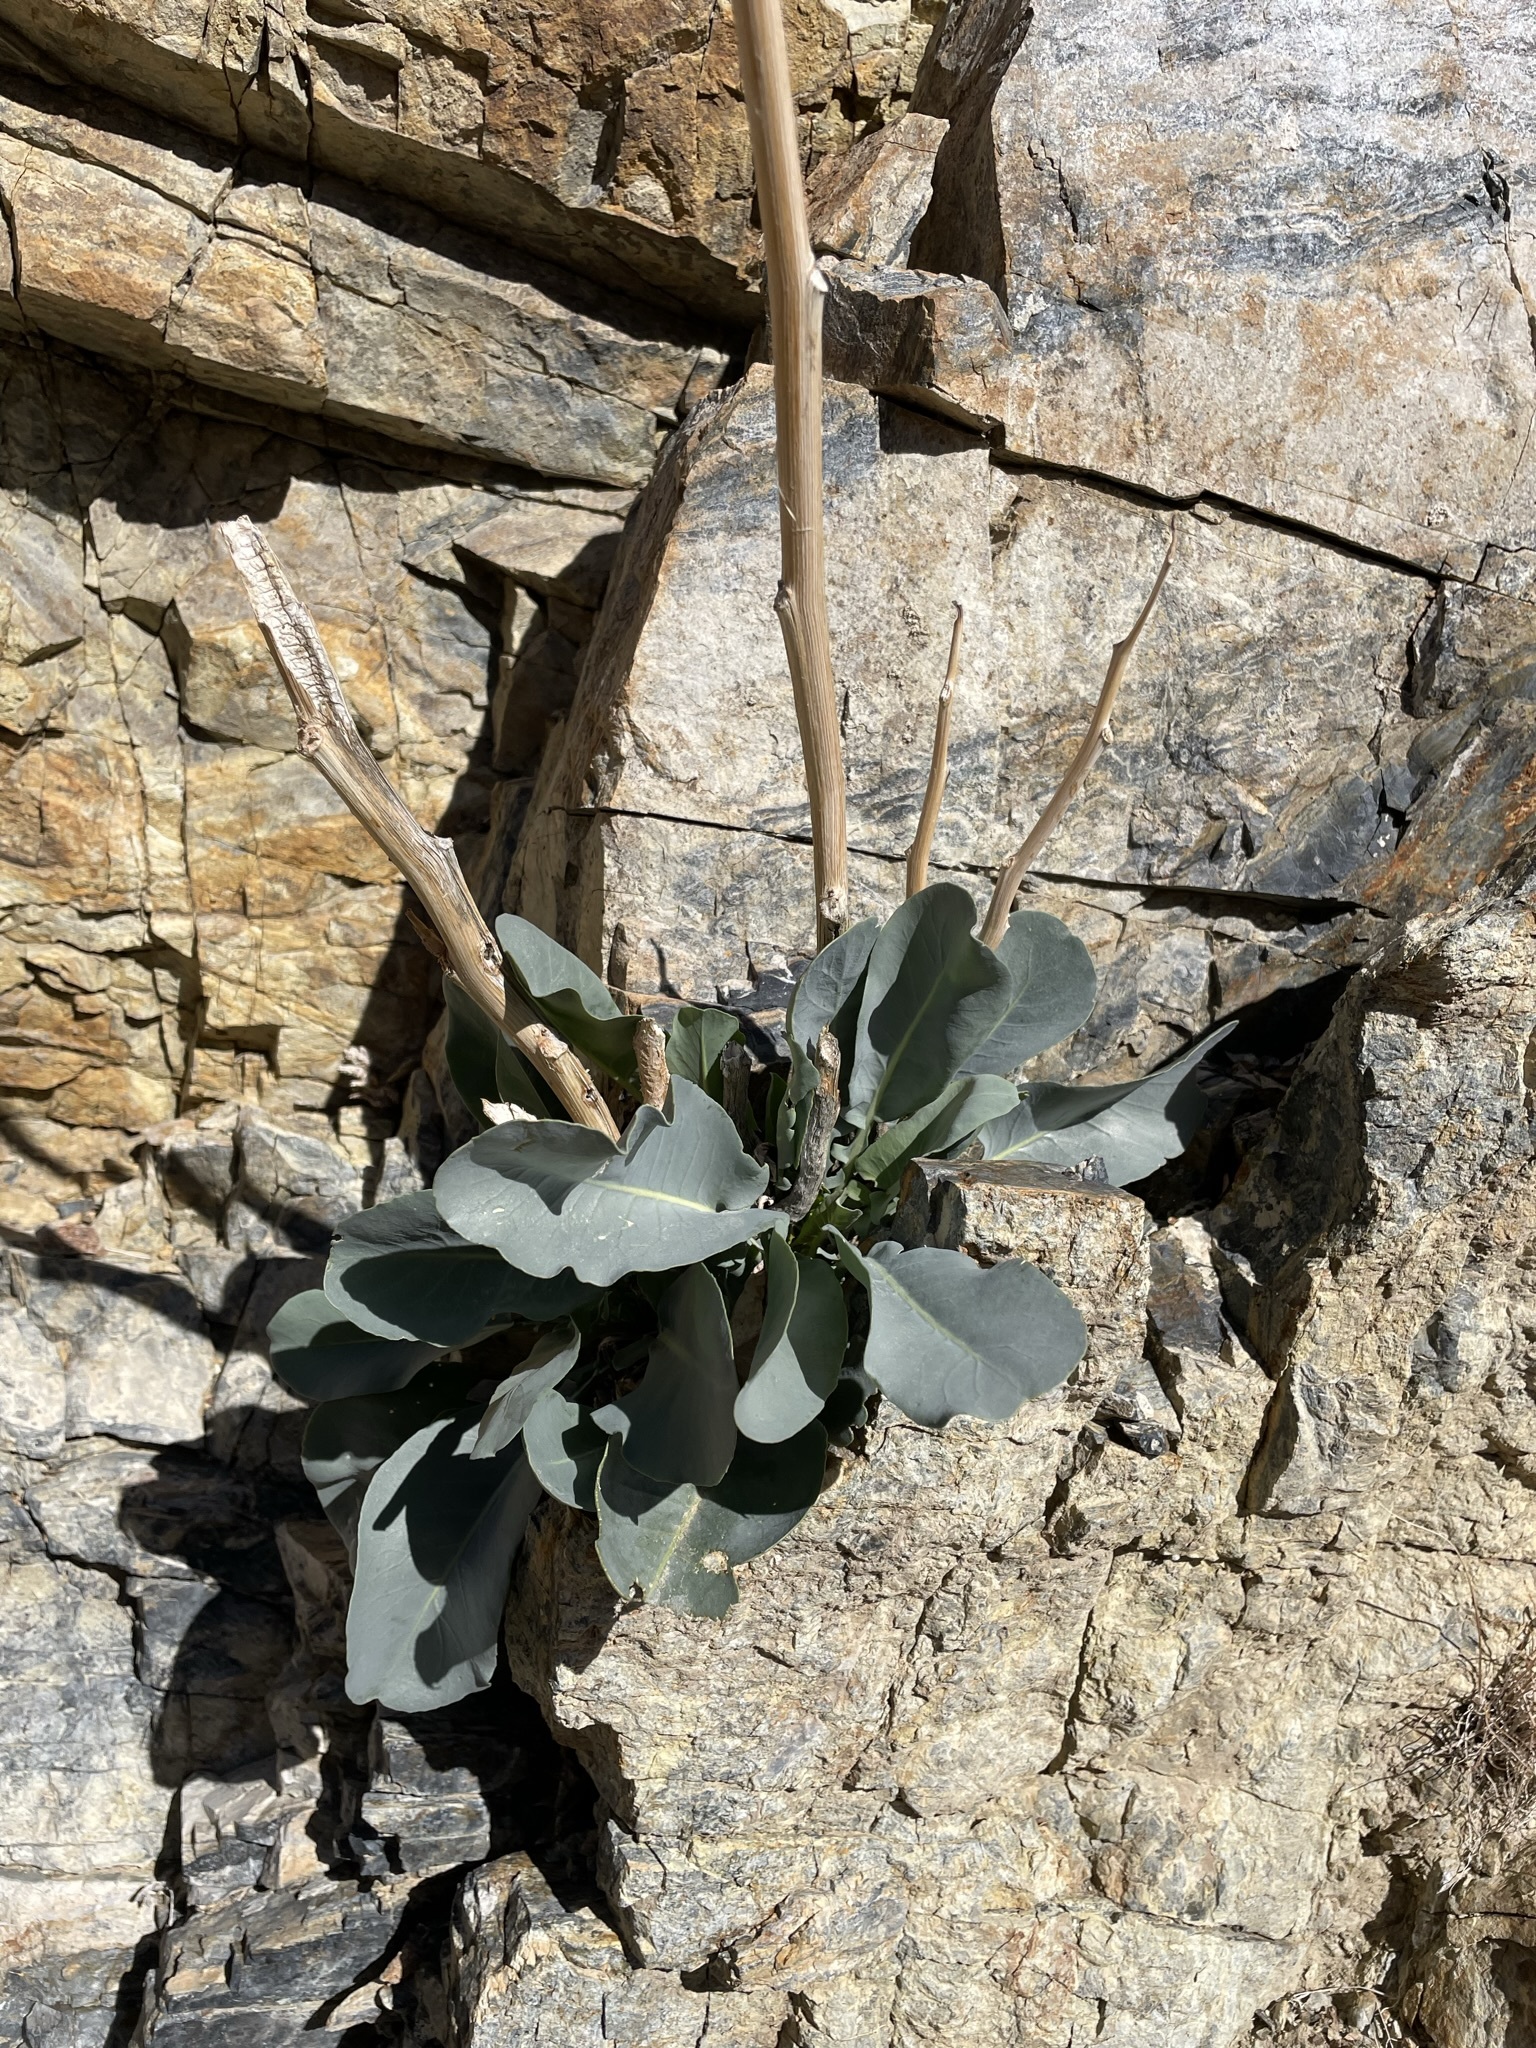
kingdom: Plantae
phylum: Tracheophyta
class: Magnoliopsida
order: Brassicales
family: Brassicaceae
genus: Stanleya
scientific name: Stanleya elata
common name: Panamint prince's plume
